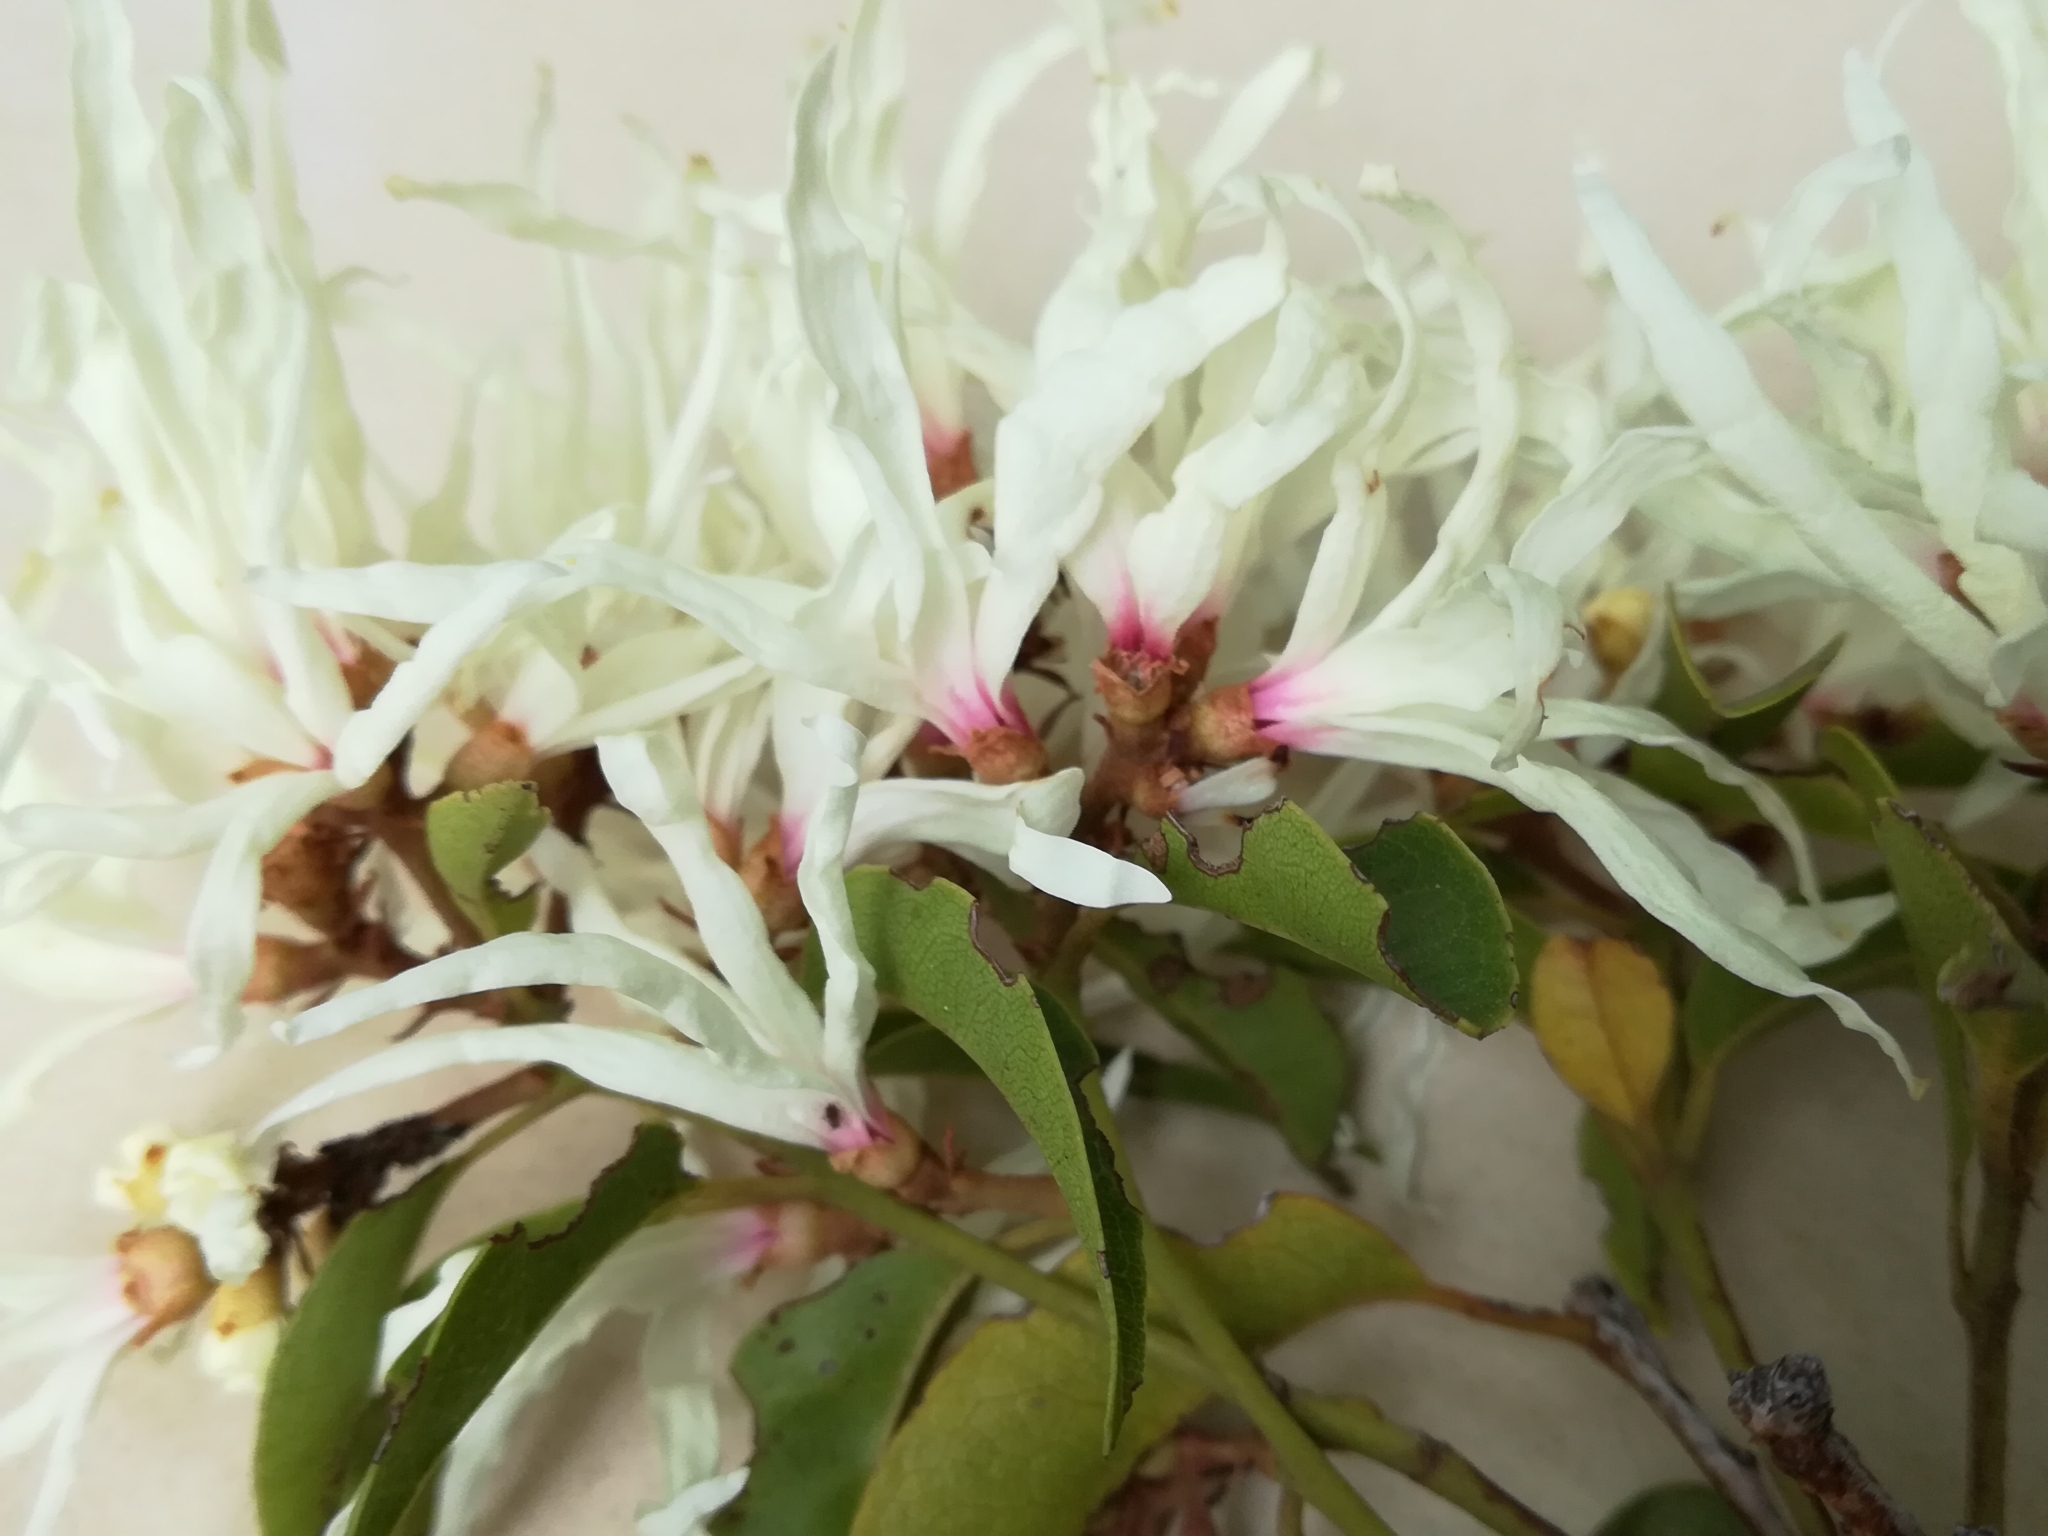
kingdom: Plantae
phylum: Tracheophyta
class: Magnoliopsida
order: Saxifragales
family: Hamamelidaceae
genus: Trichocladus
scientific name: Trichocladus grandiflorus
